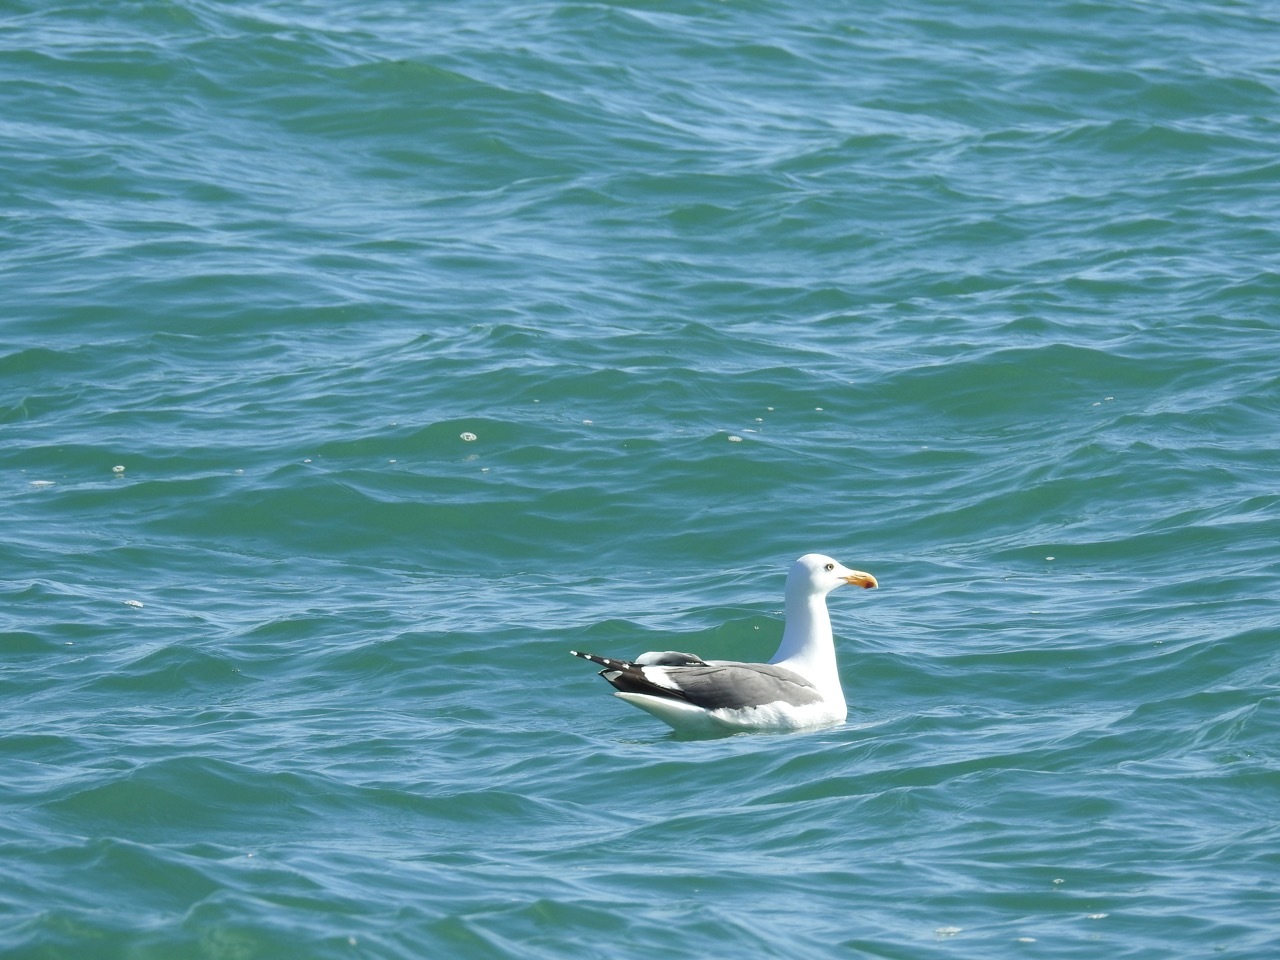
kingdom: Animalia
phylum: Chordata
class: Aves
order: Charadriiformes
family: Laridae
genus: Larus
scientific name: Larus occidentalis
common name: Western gull
